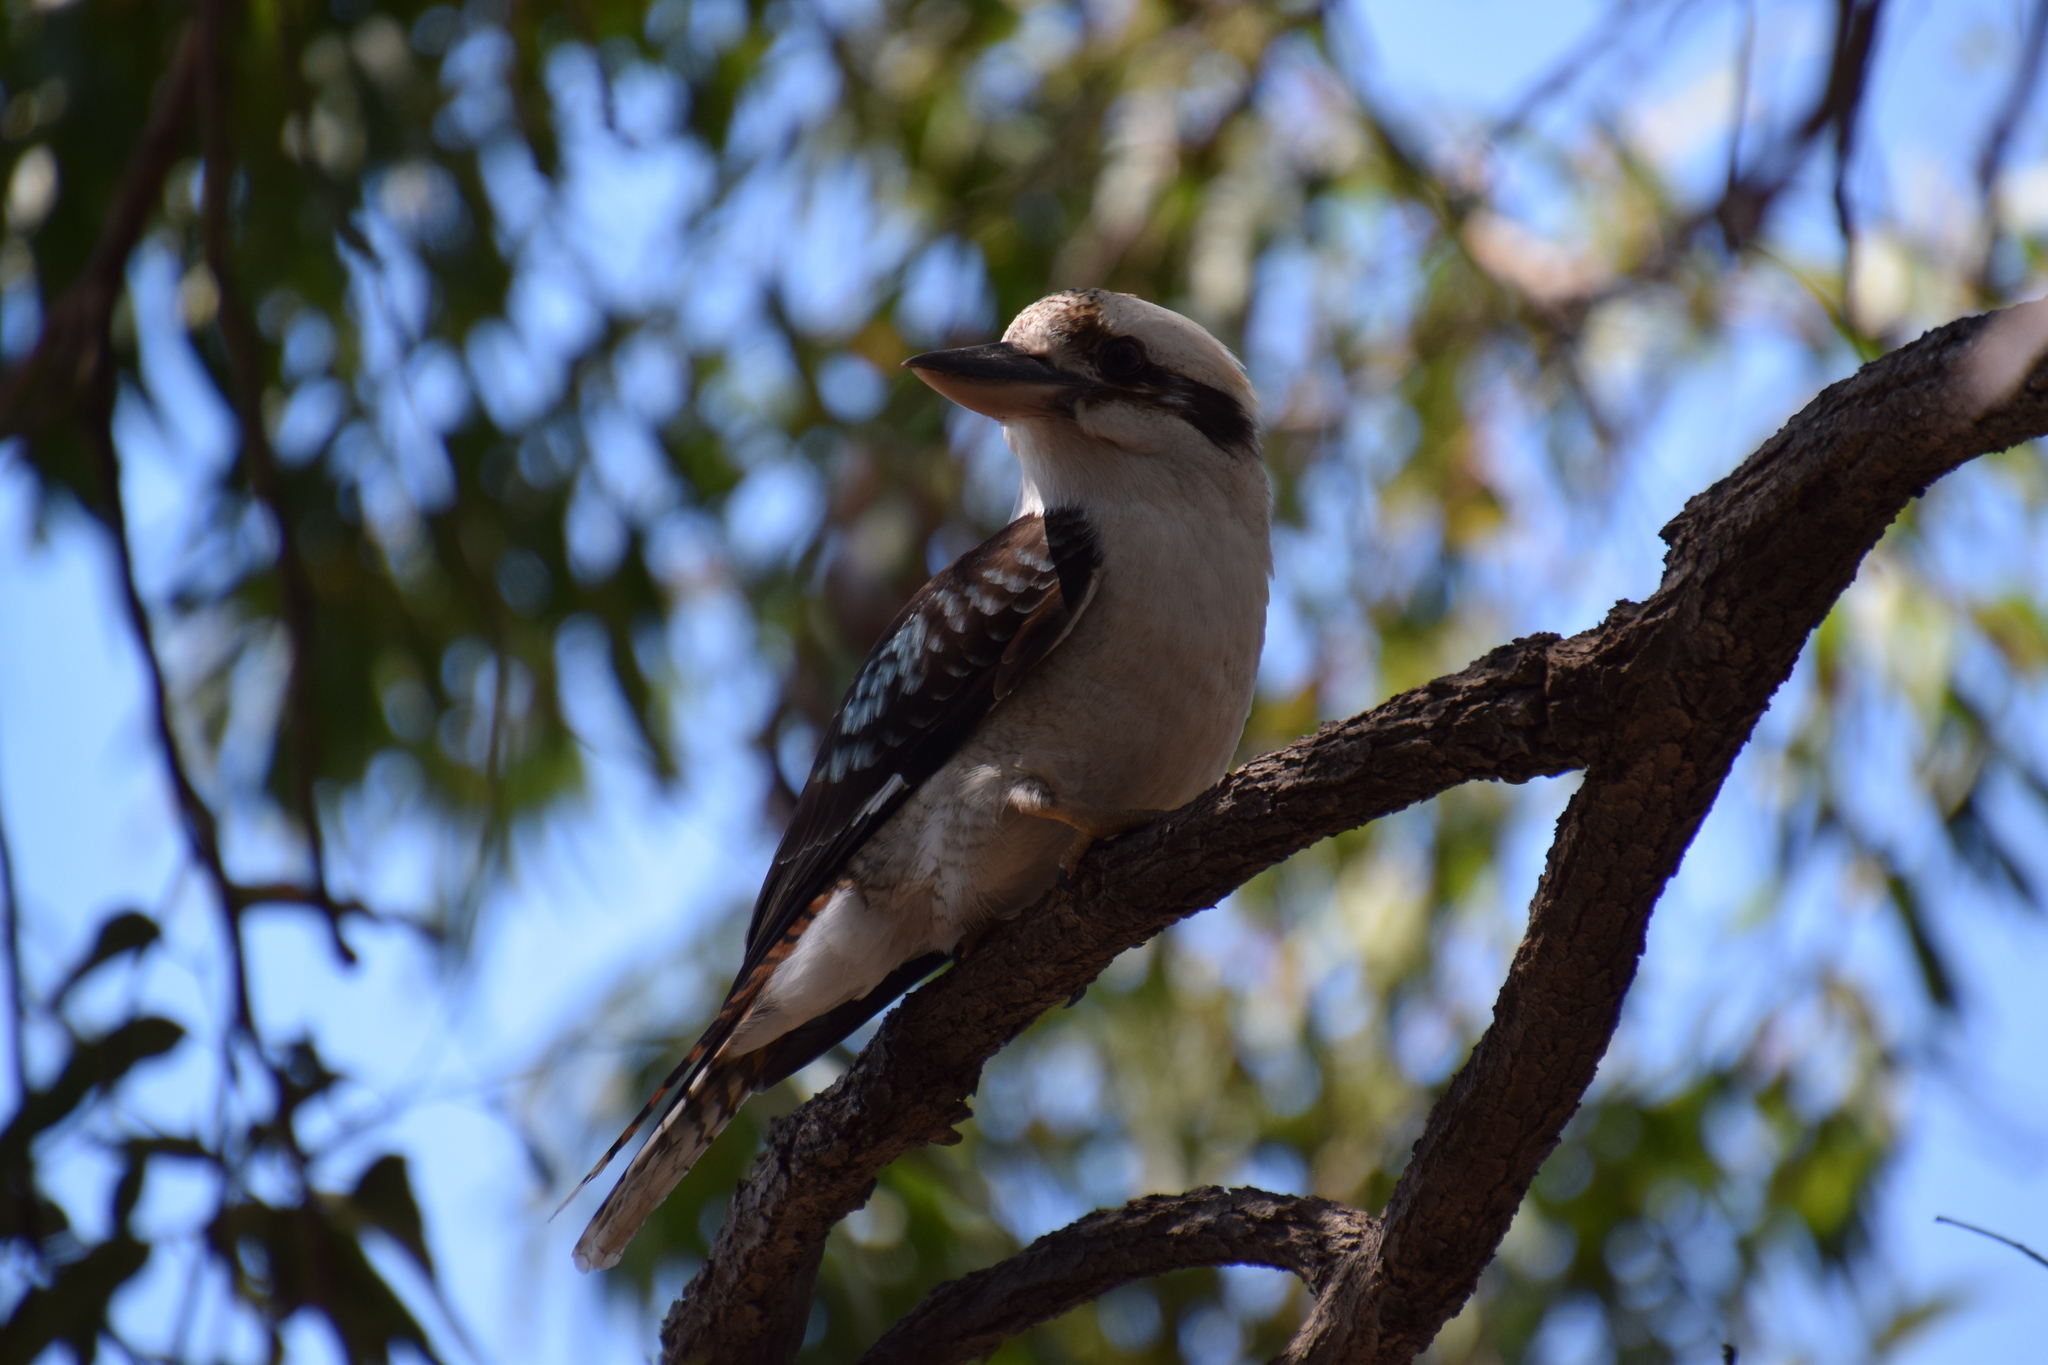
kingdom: Animalia
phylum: Chordata
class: Aves
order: Coraciiformes
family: Alcedinidae
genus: Dacelo
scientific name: Dacelo novaeguineae
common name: Laughing kookaburra
